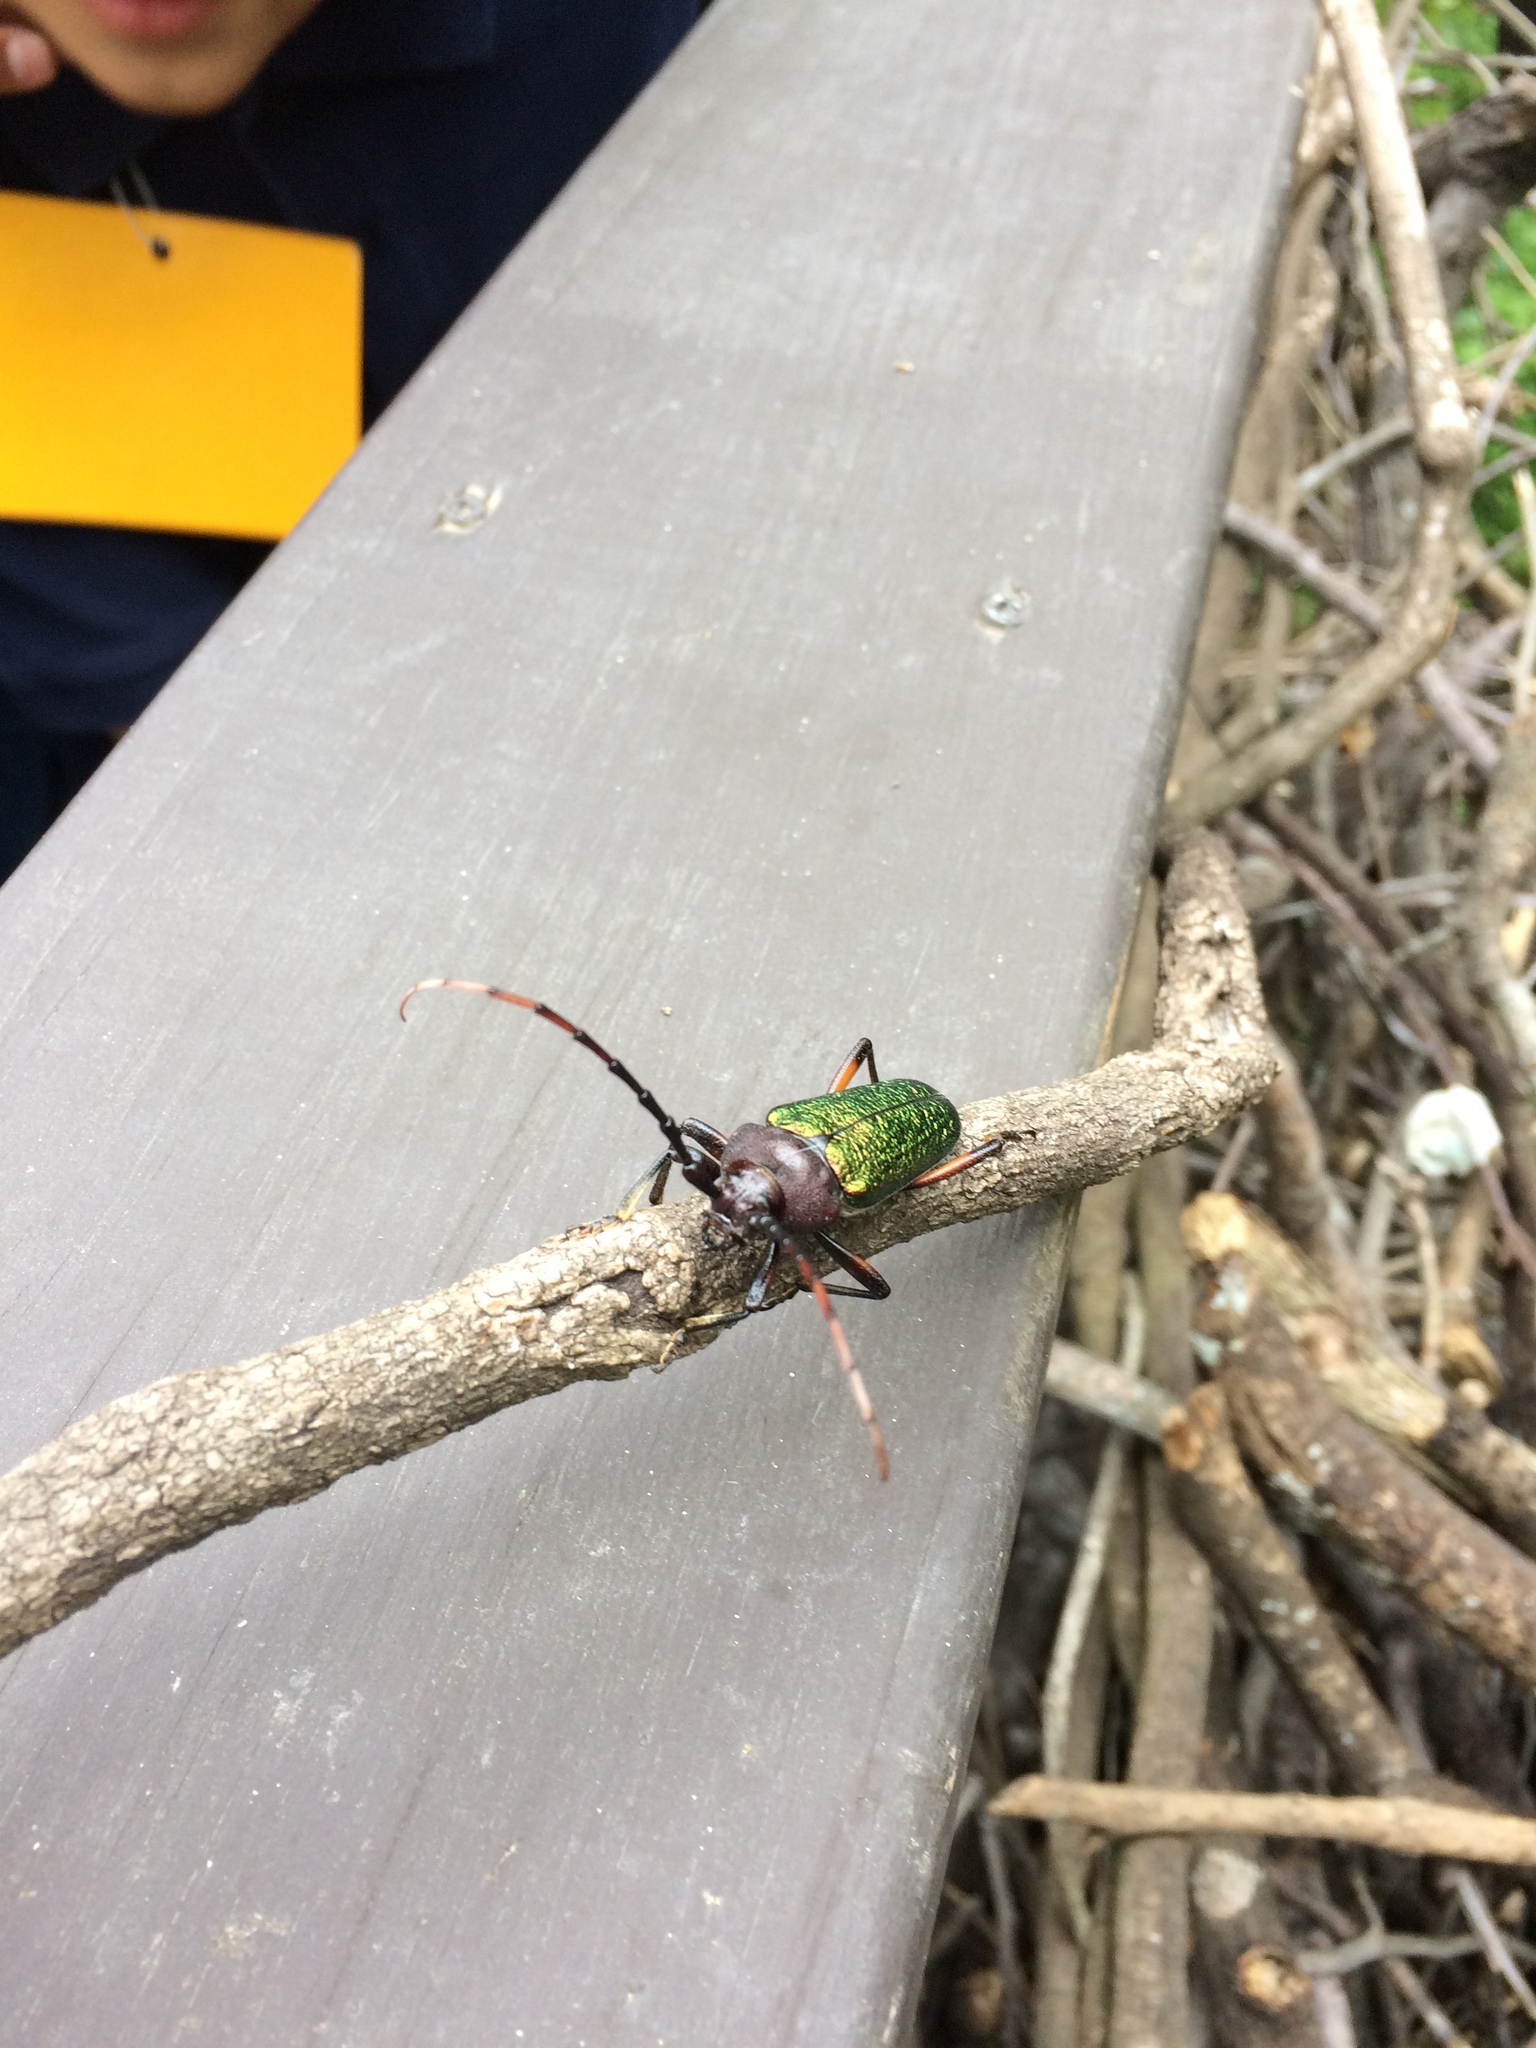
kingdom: Animalia
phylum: Arthropoda
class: Insecta
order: Coleoptera
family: Cerambycidae
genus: Crioprosopus
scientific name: Crioprosopus rimosus
